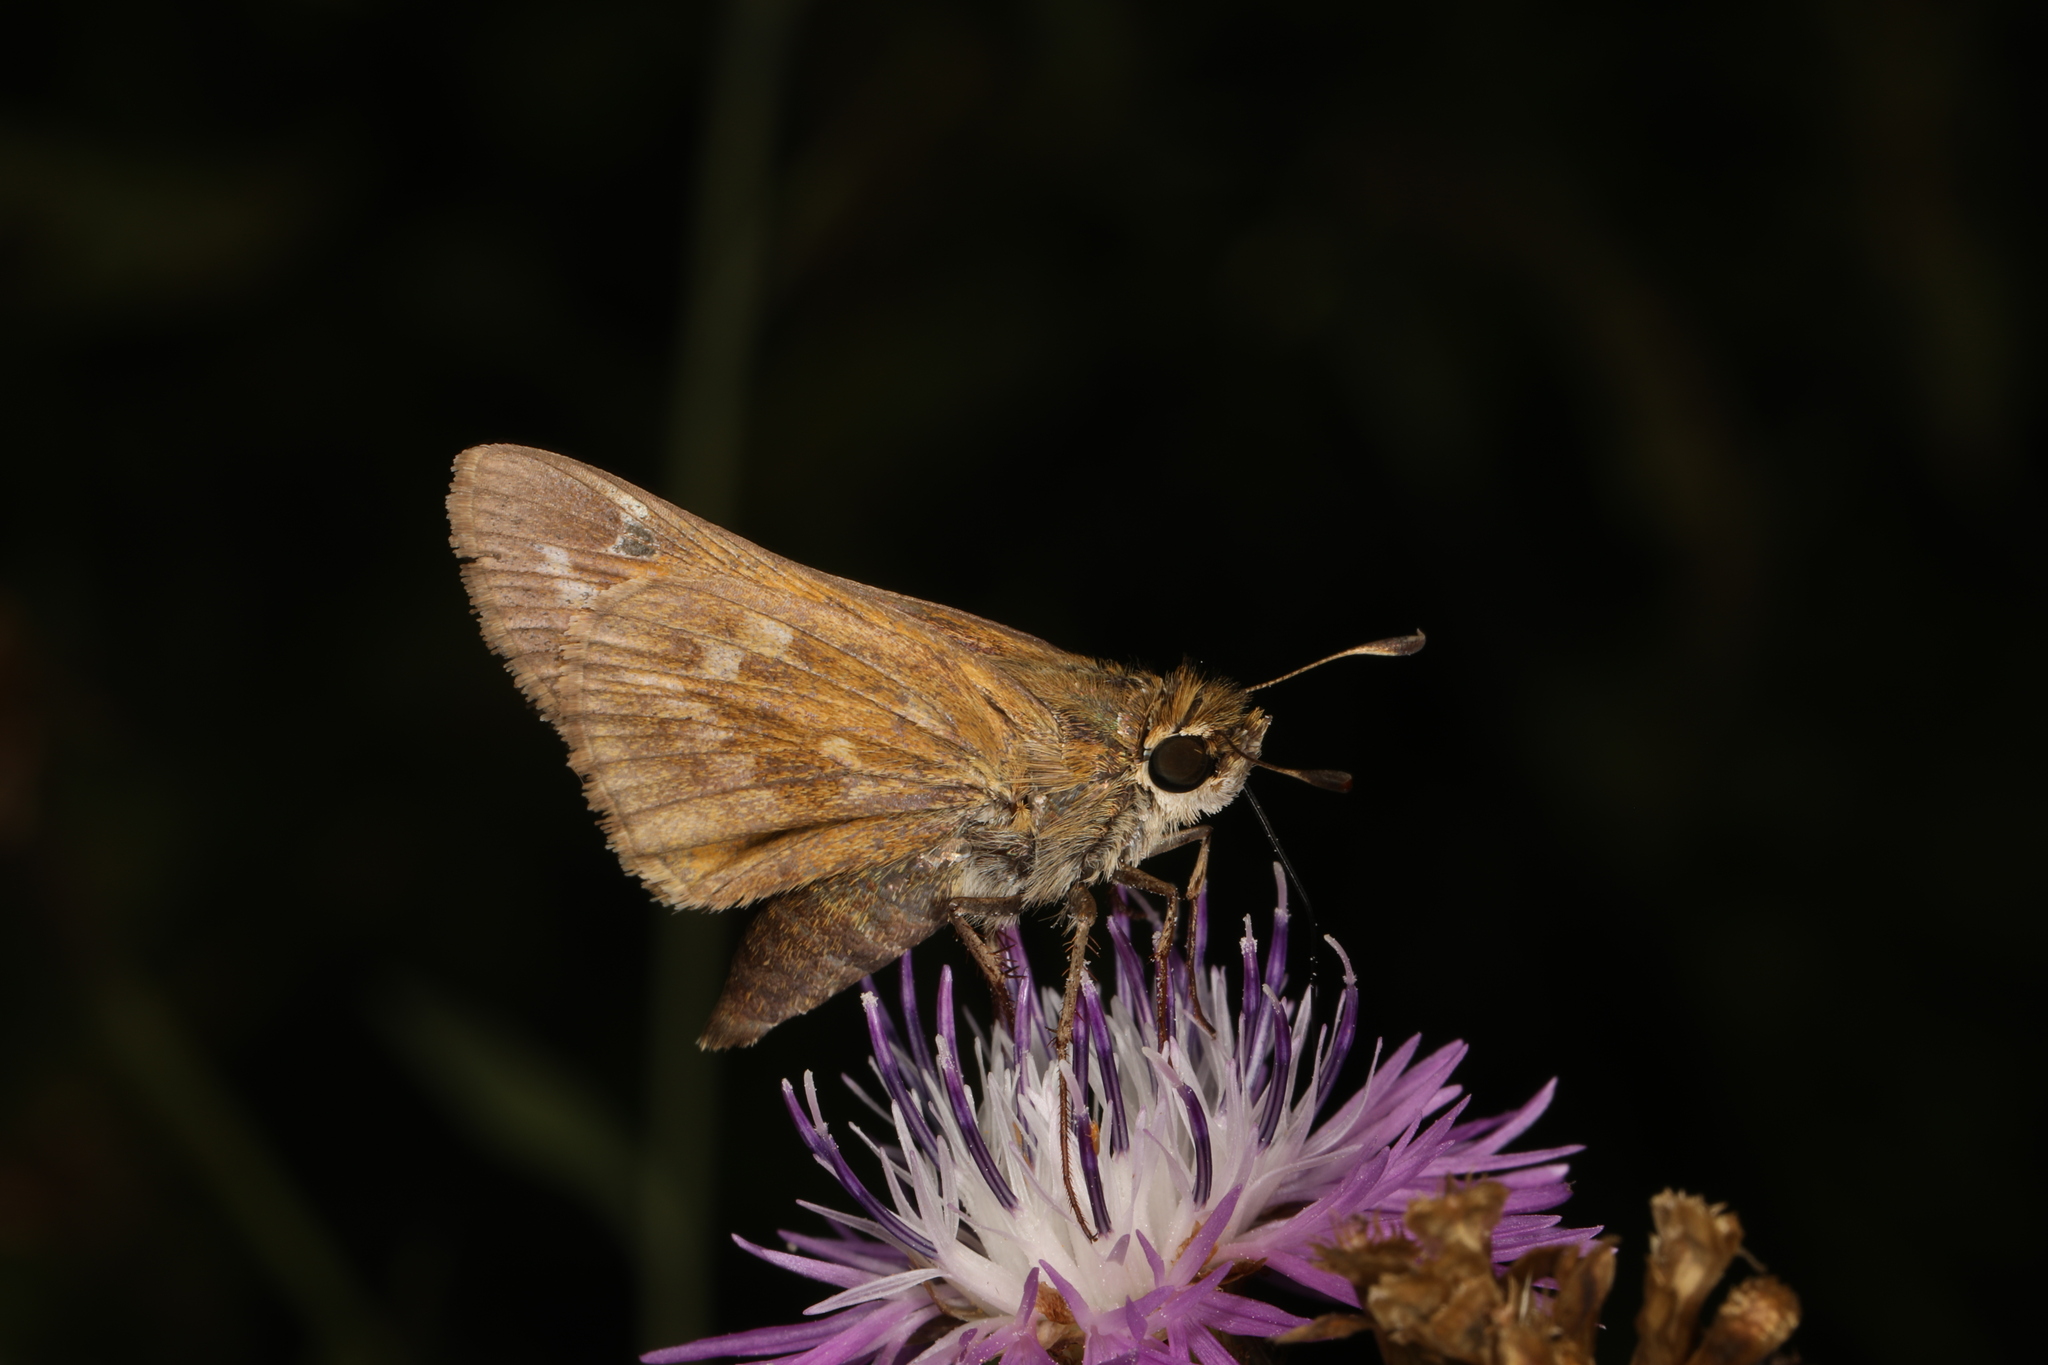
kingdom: Animalia
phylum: Arthropoda
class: Insecta
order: Lepidoptera
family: Hesperiidae
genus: Atalopedes
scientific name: Atalopedes
